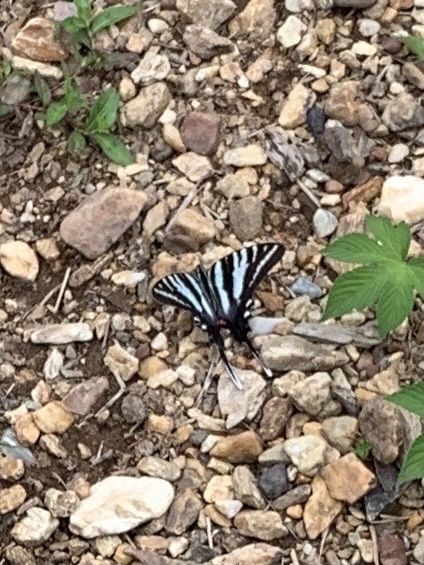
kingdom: Animalia
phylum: Arthropoda
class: Insecta
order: Lepidoptera
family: Papilionidae
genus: Protographium
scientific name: Protographium marcellus
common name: Zebra swallowtail
